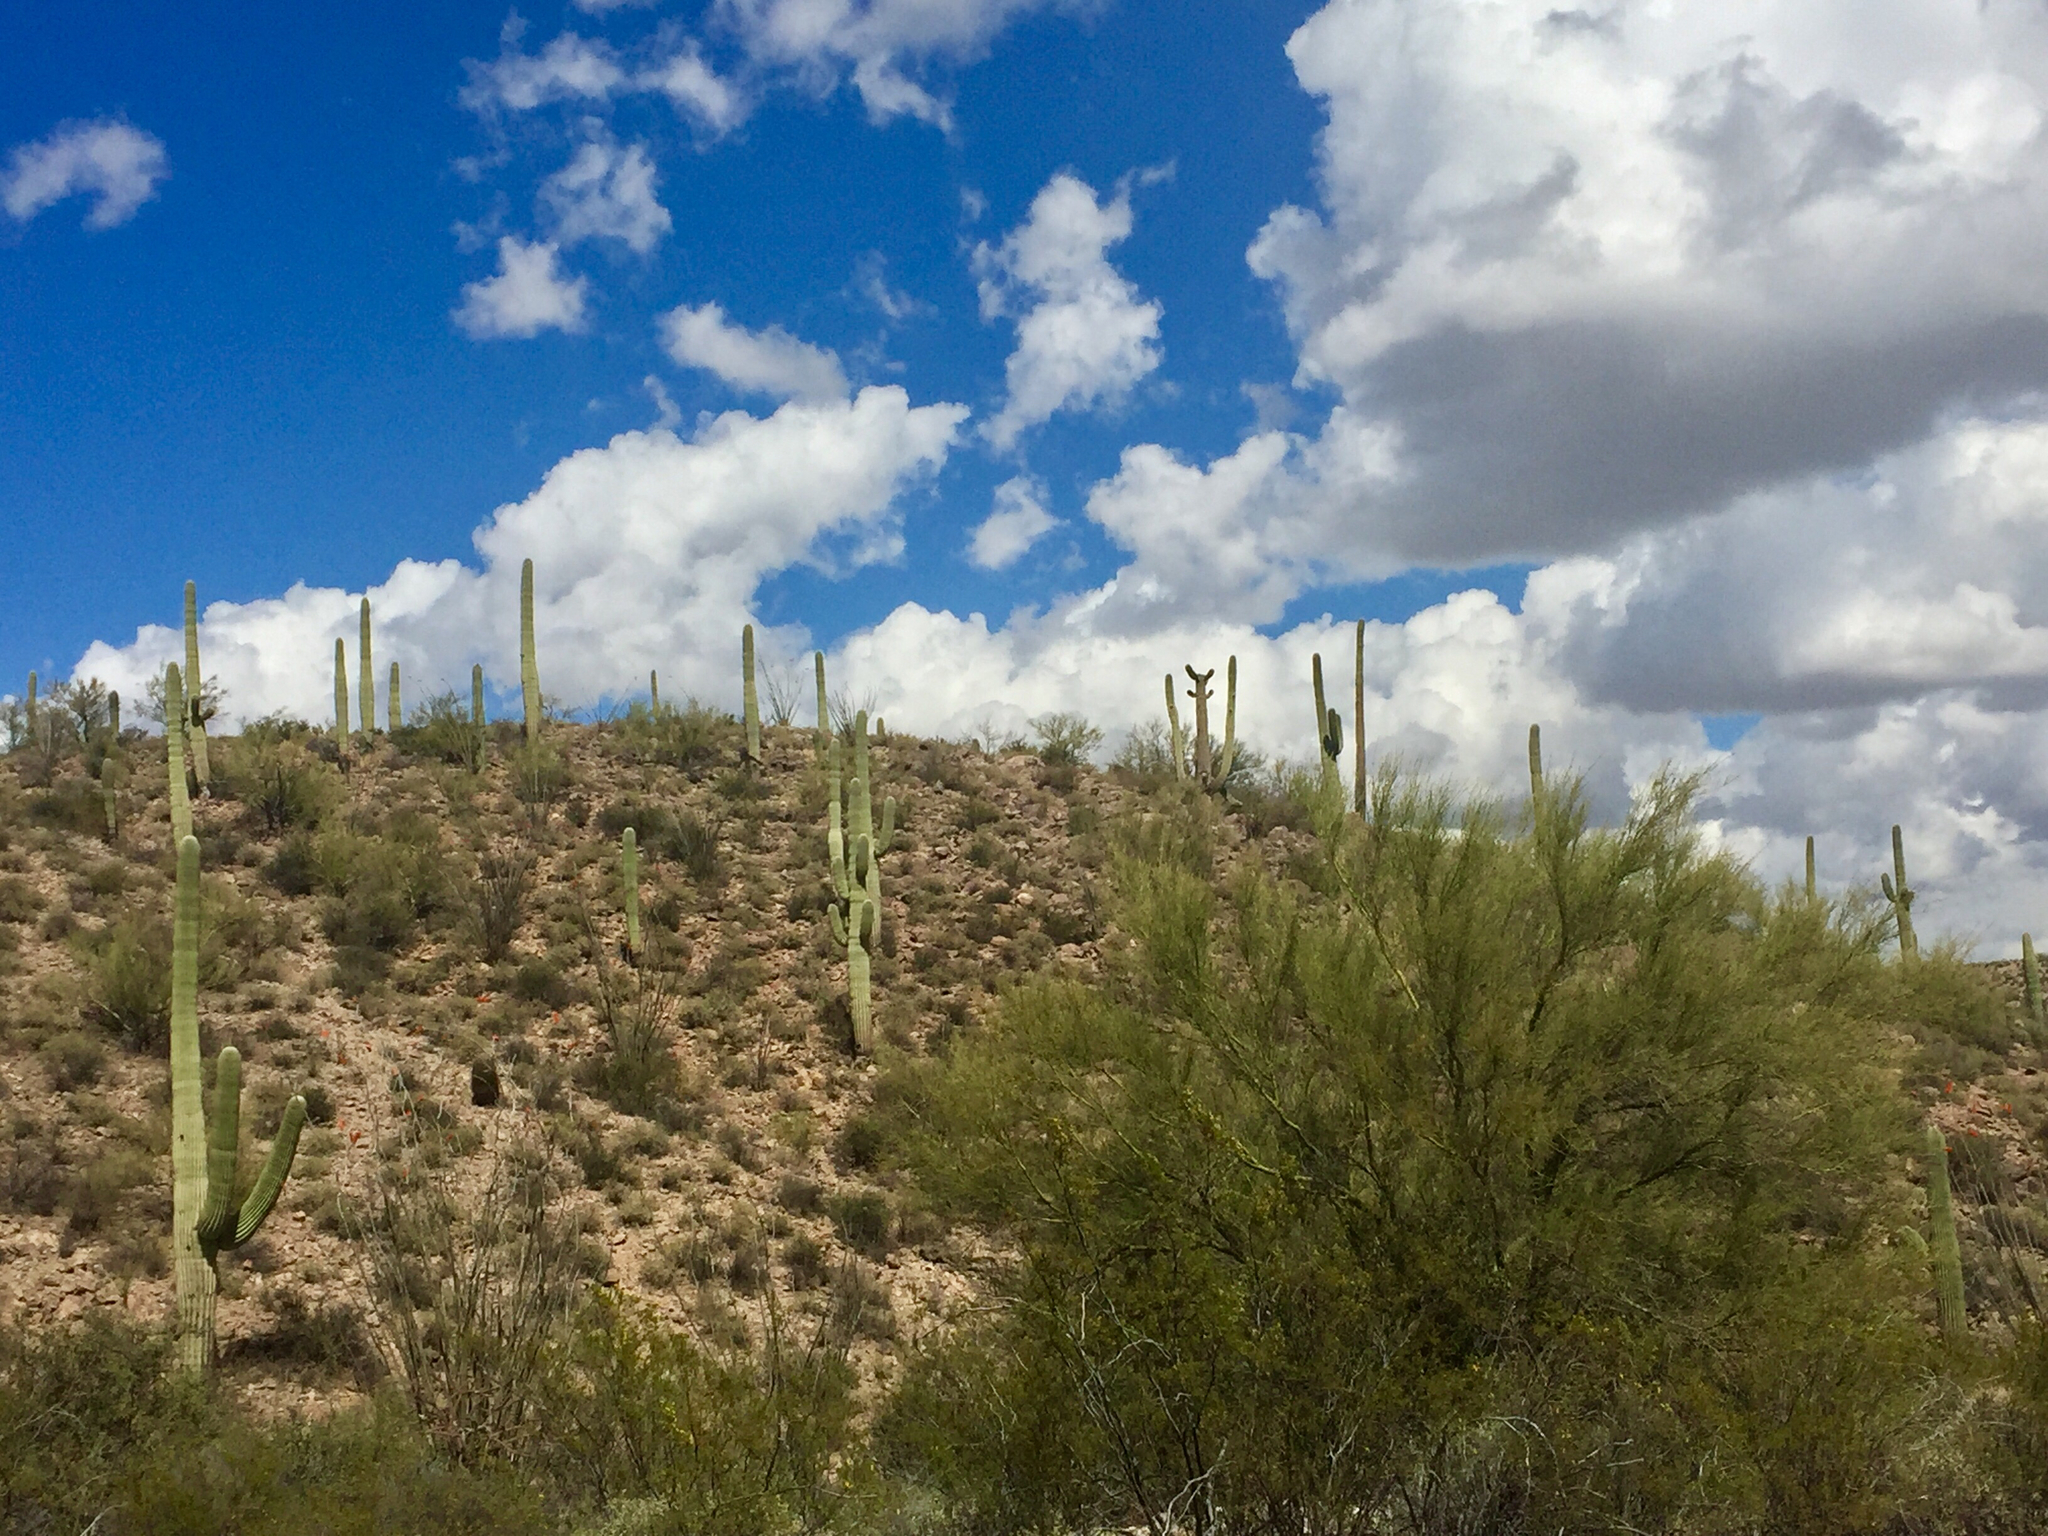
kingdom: Plantae
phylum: Tracheophyta
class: Magnoliopsida
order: Fabales
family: Fabaceae
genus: Parkinsonia
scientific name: Parkinsonia microphylla
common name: Yellow paloverde
